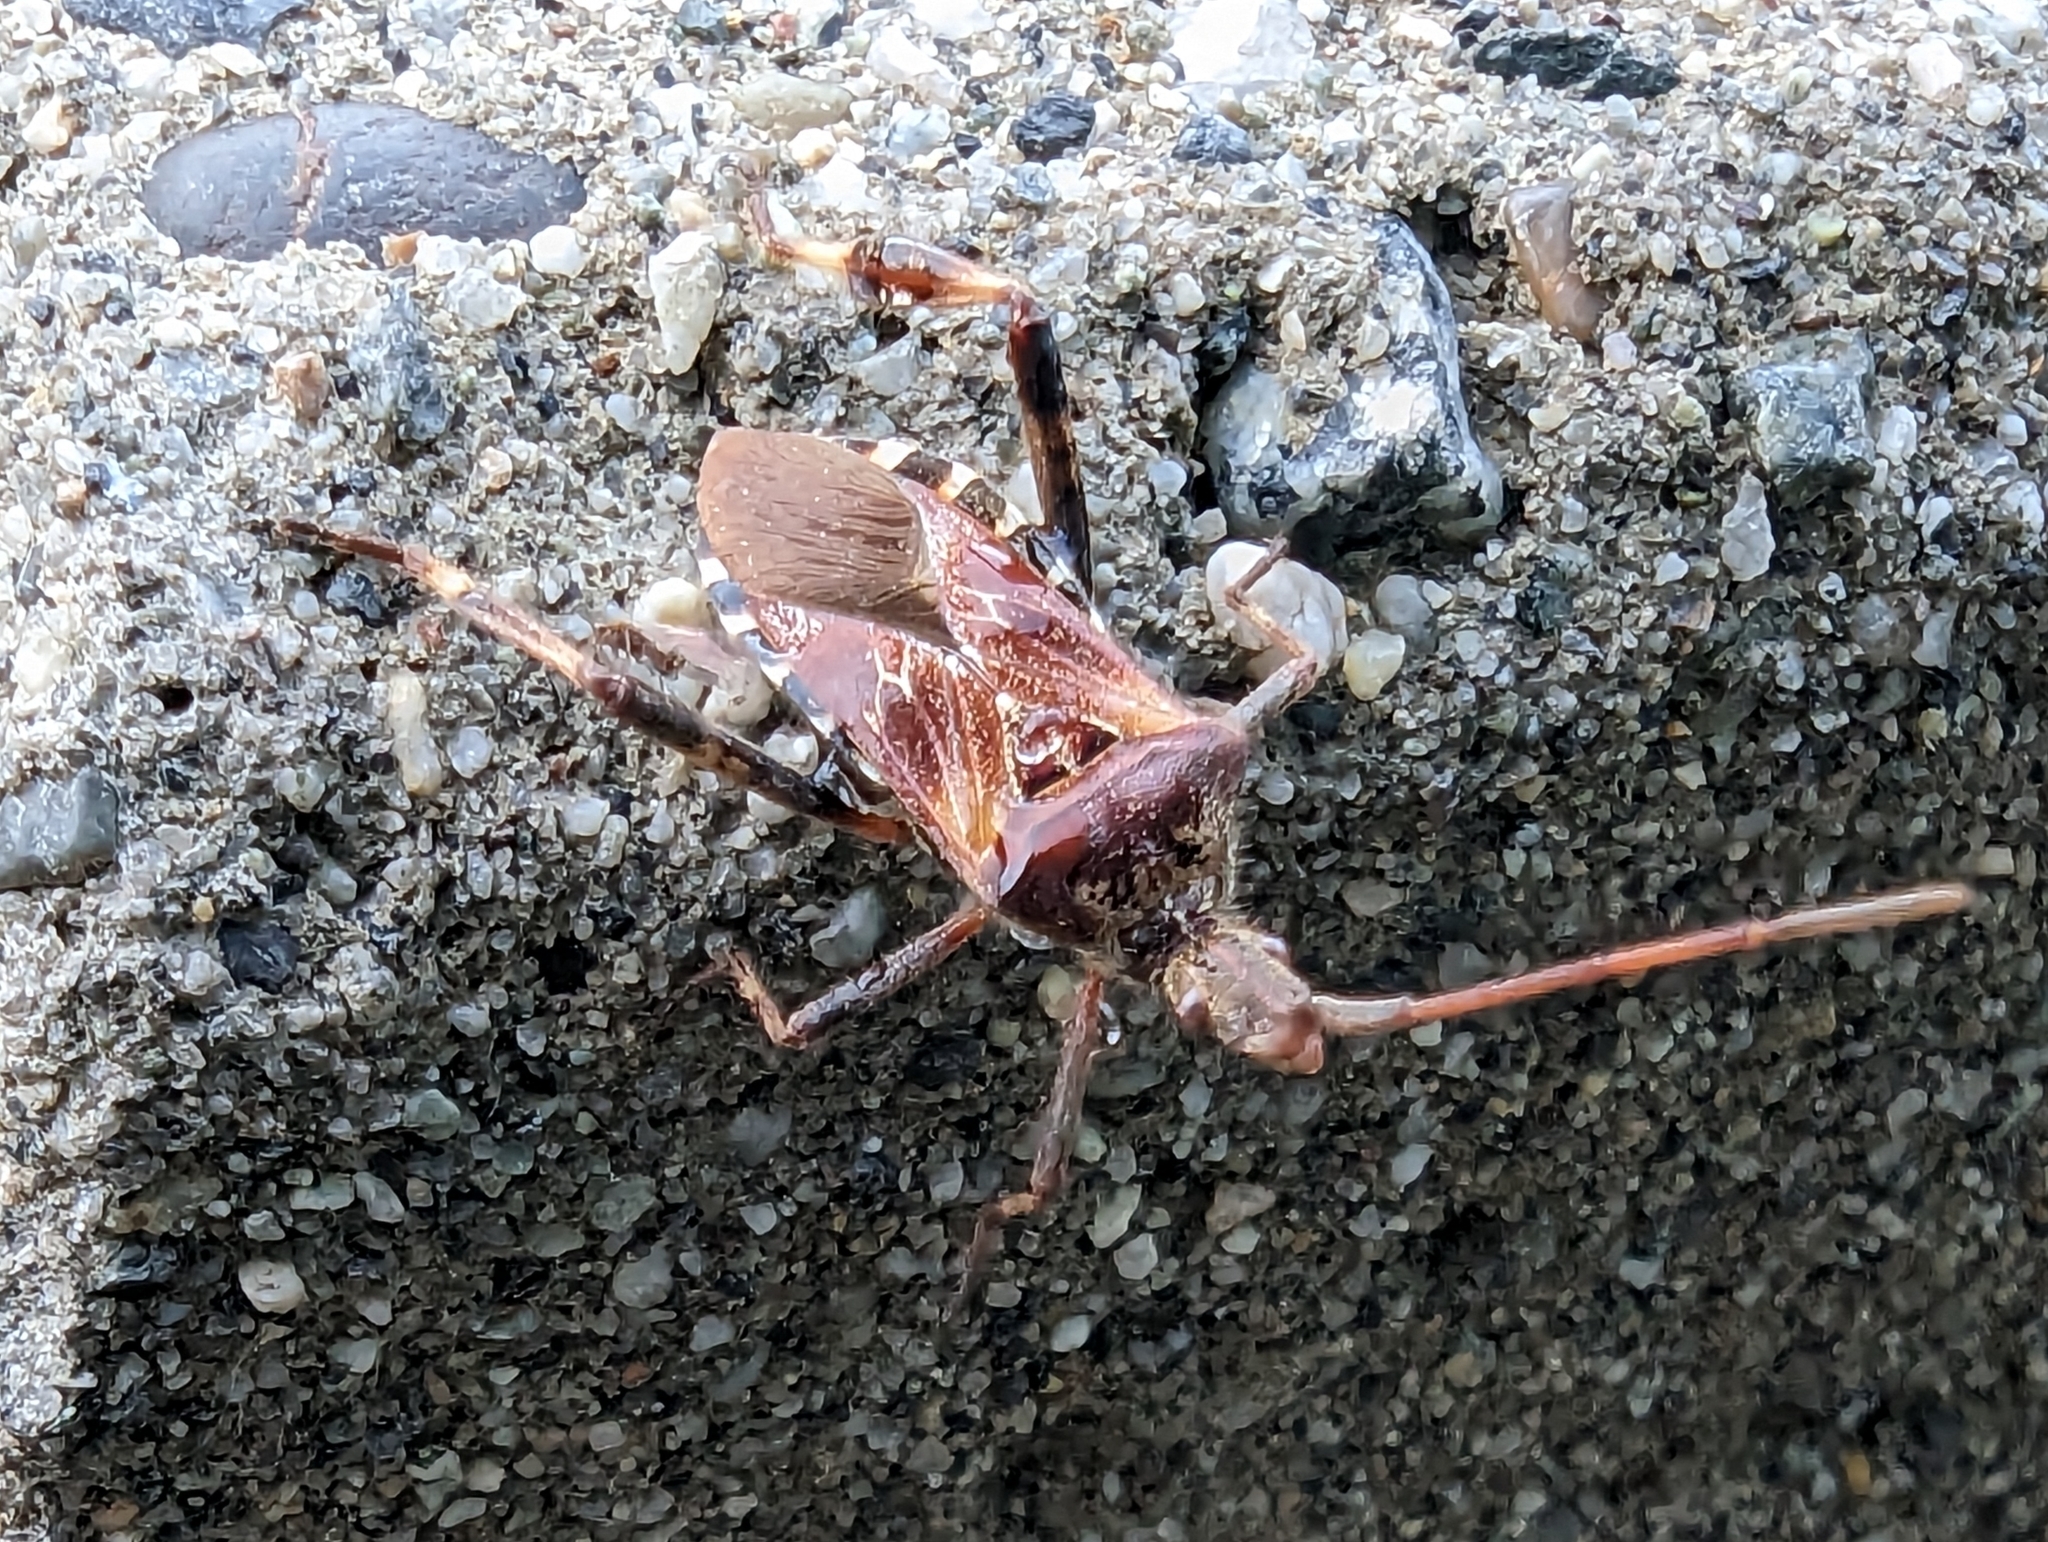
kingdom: Animalia
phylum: Arthropoda
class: Insecta
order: Hemiptera
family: Coreidae
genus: Leptoglossus
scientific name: Leptoglossus occidentalis
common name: Western conifer-seed bug
